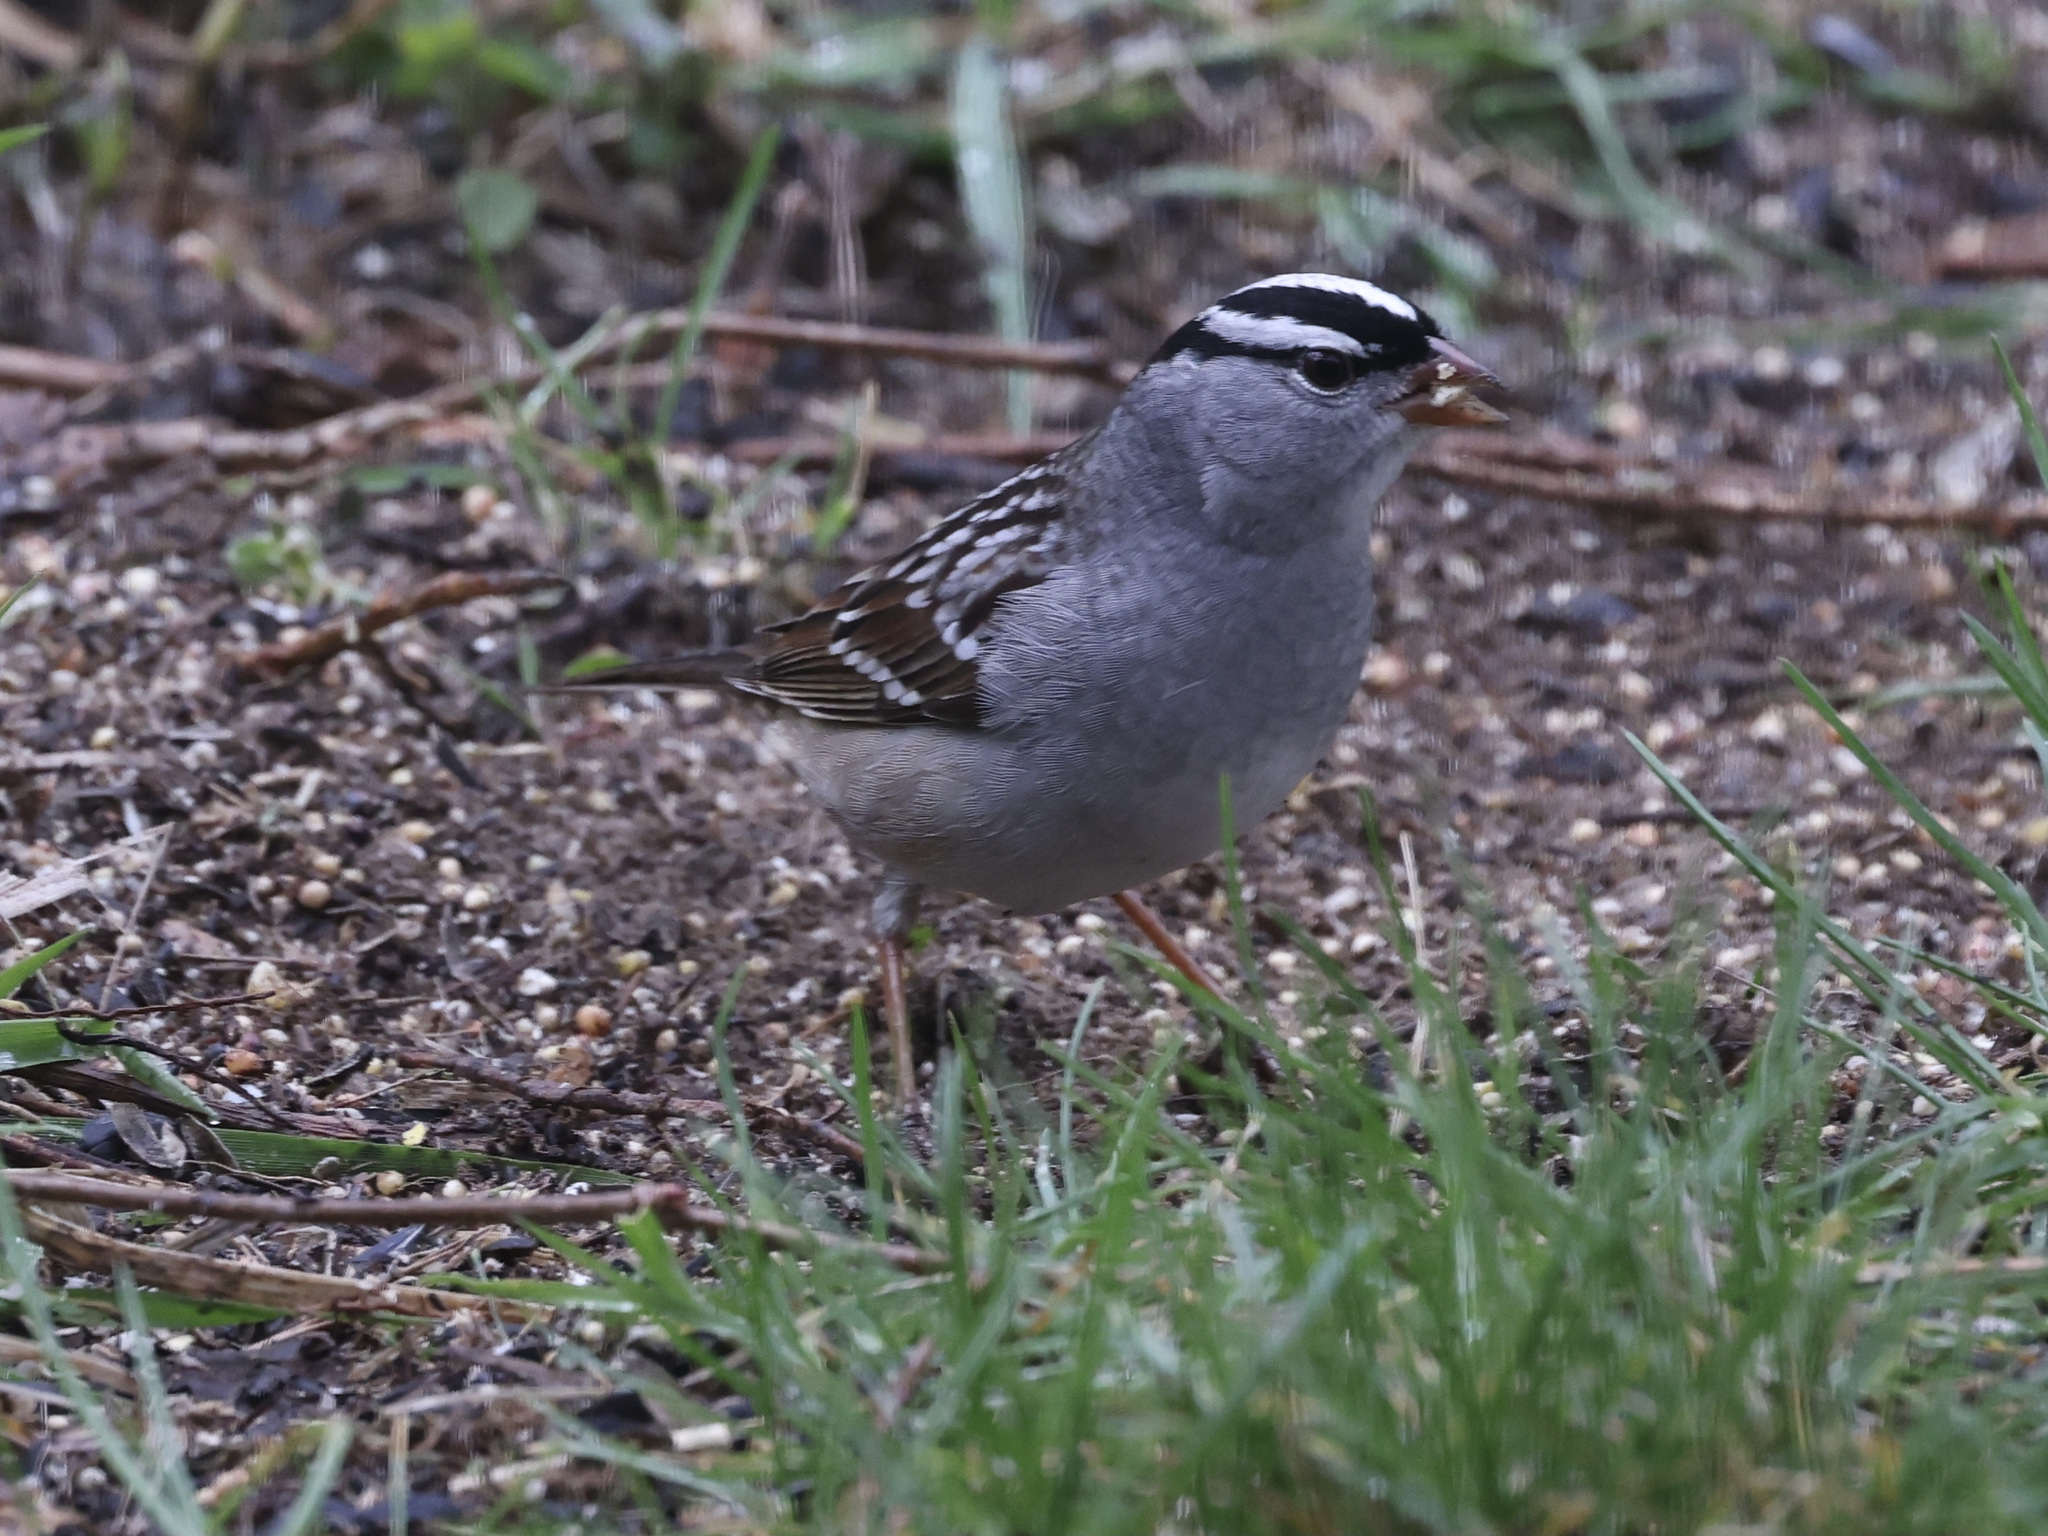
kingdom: Animalia
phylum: Chordata
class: Aves
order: Passeriformes
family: Passerellidae
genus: Zonotrichia
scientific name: Zonotrichia leucophrys
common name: White-crowned sparrow
